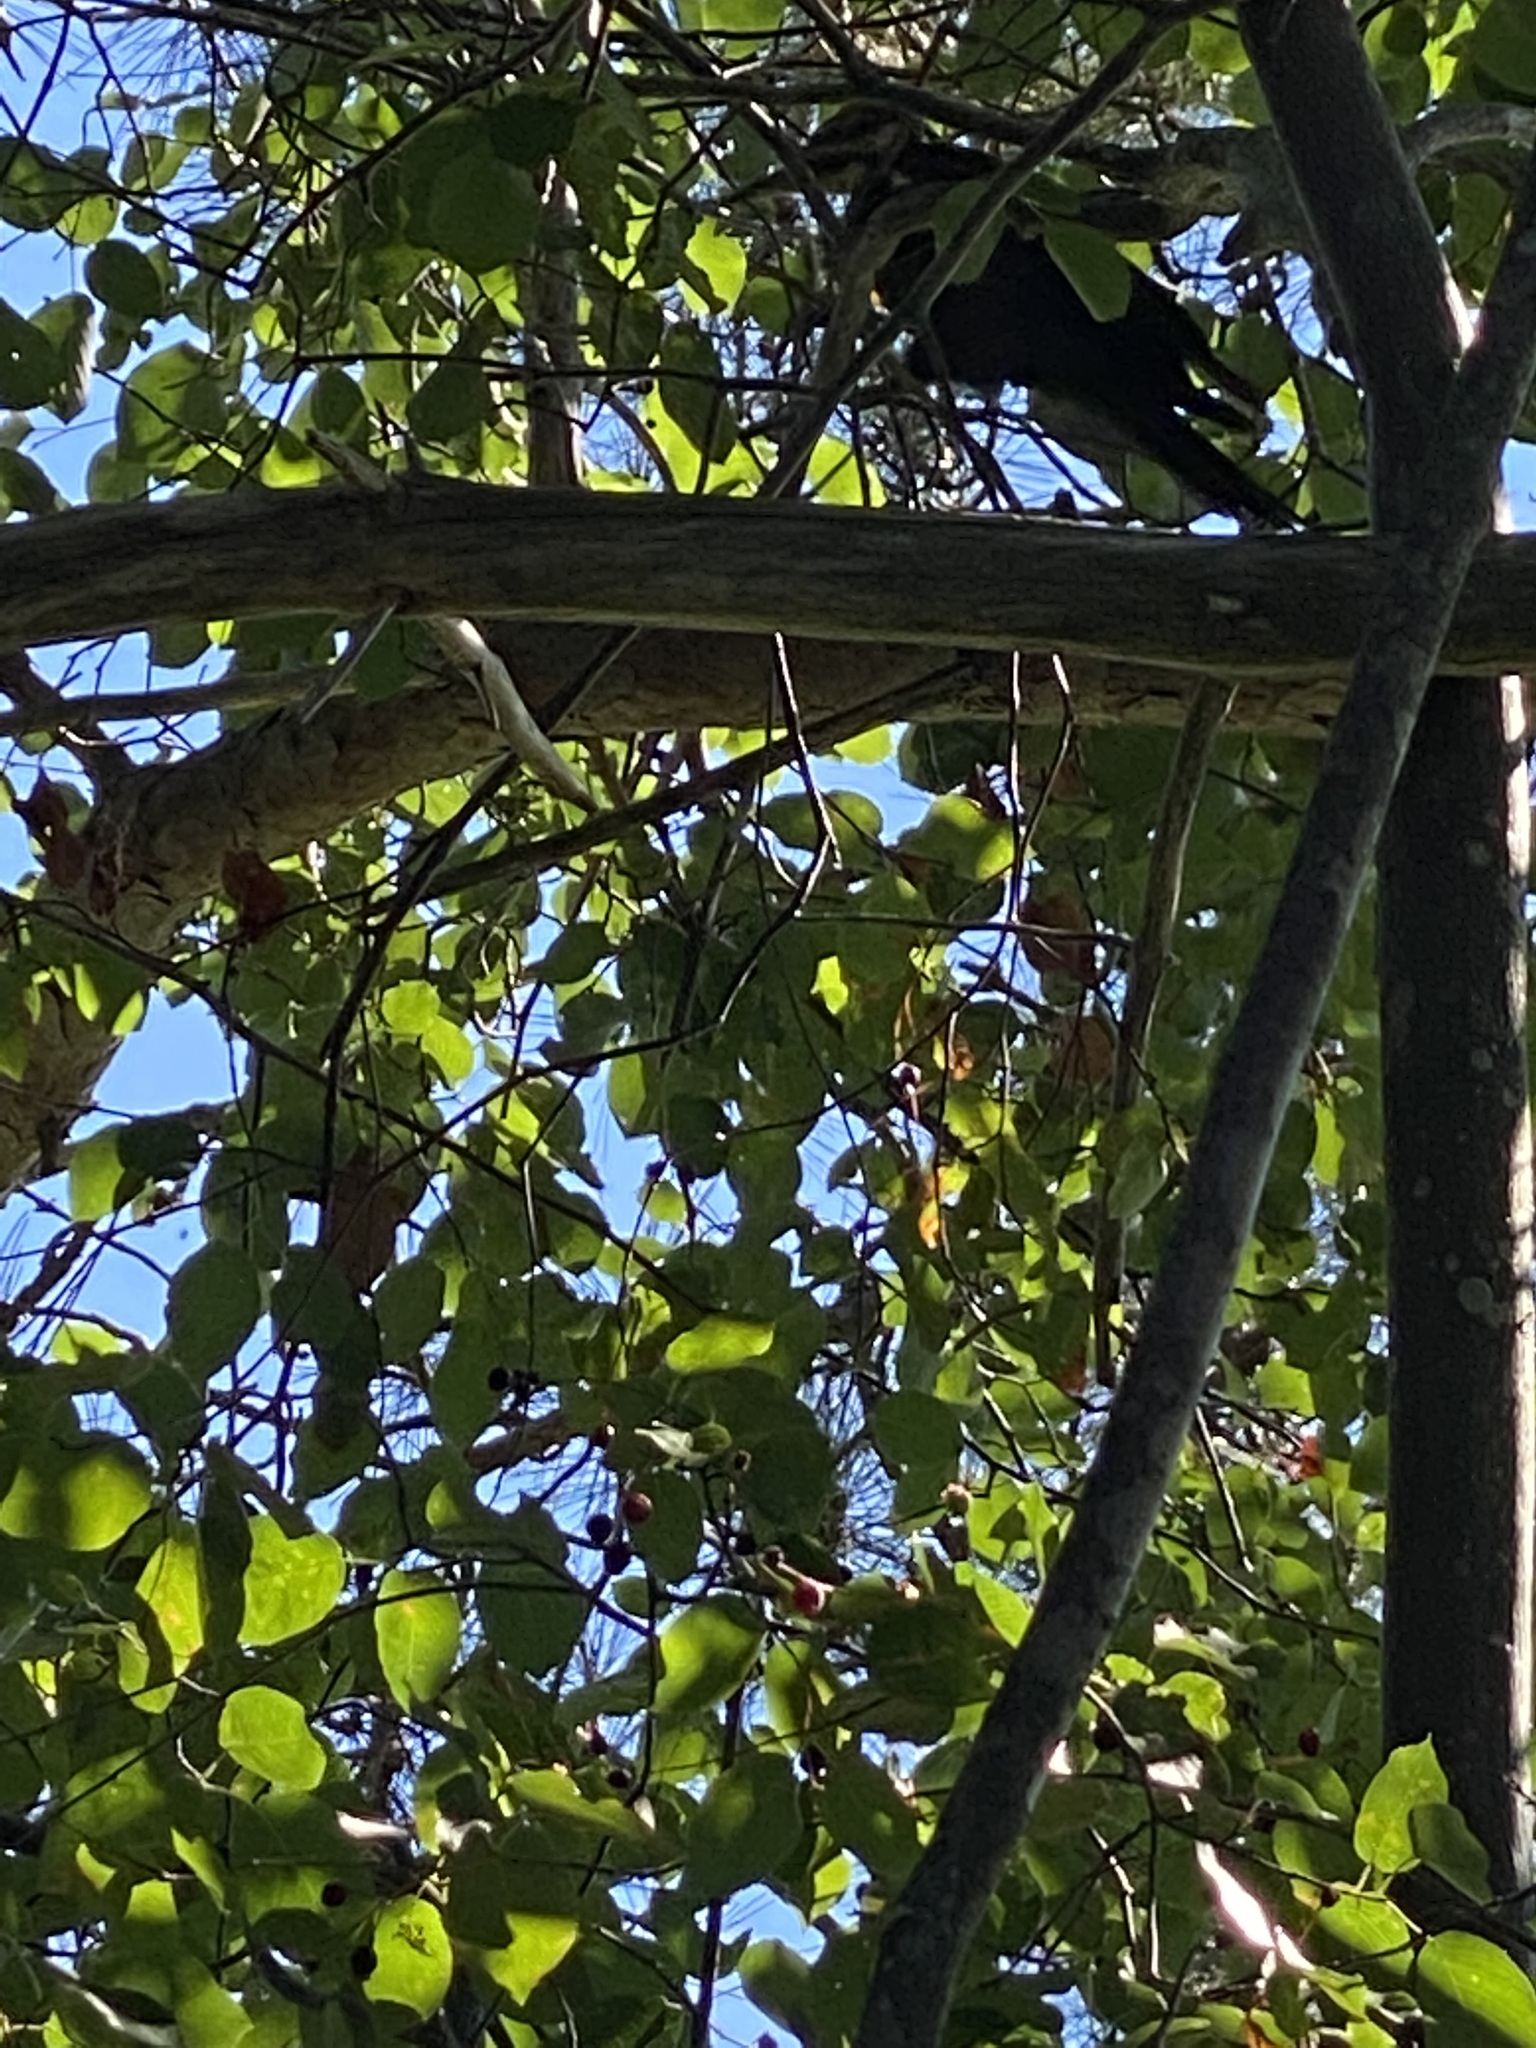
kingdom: Animalia
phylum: Chordata
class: Aves
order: Piciformes
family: Picidae
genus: Dryocopus
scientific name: Dryocopus pileatus
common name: Pileated woodpecker
